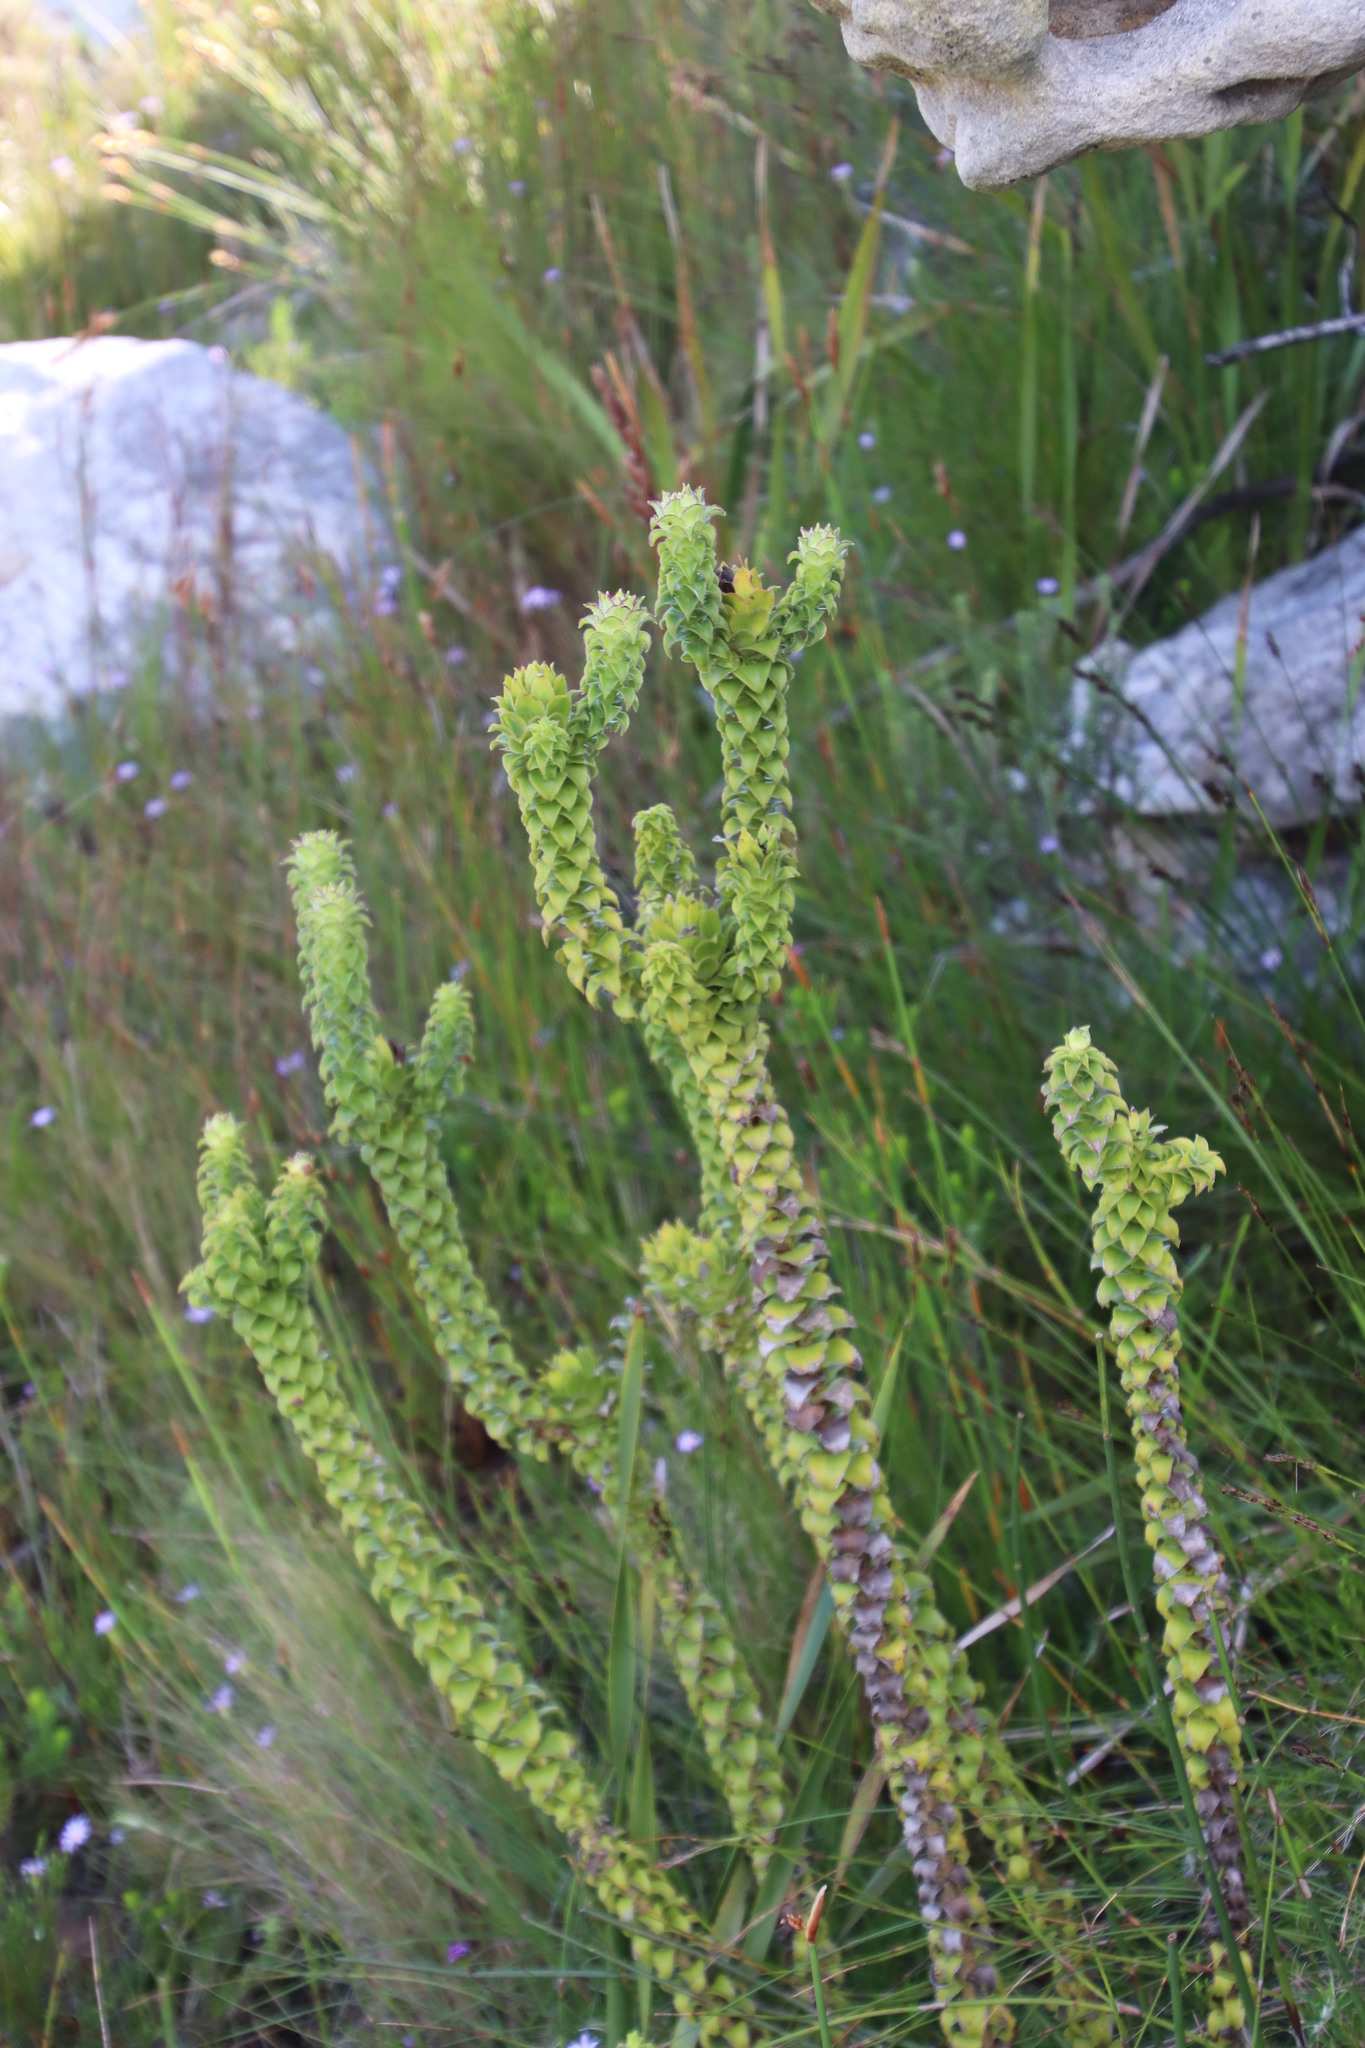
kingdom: Plantae
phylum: Tracheophyta
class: Magnoliopsida
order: Asterales
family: Asteraceae
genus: Oedera
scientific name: Oedera imbricata
